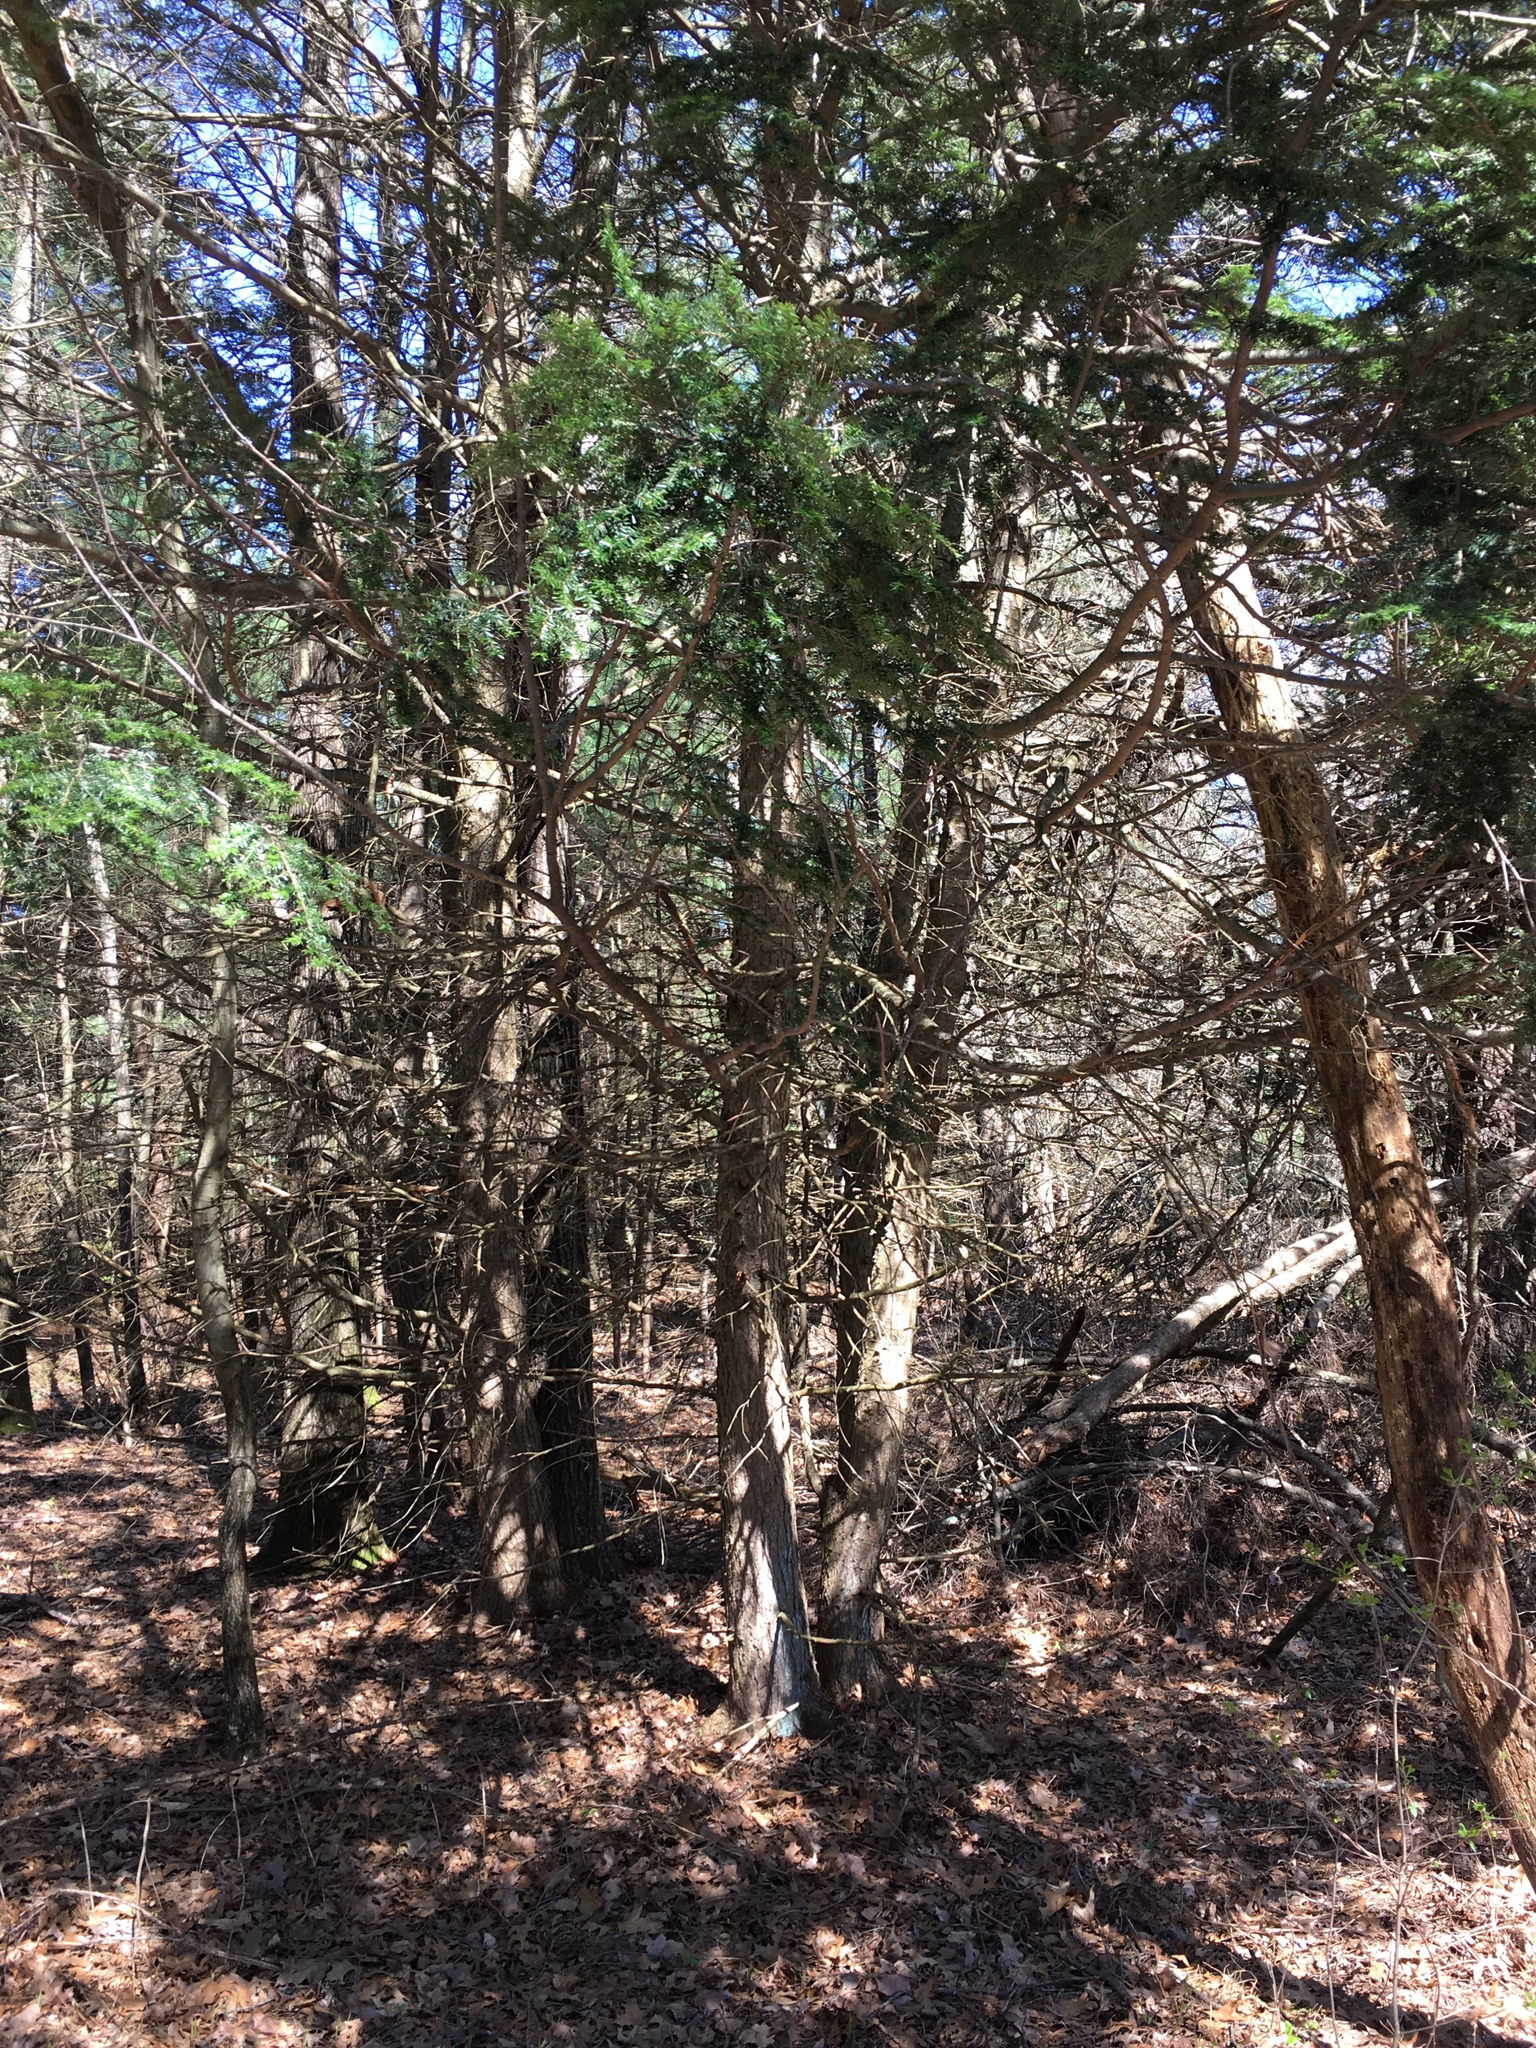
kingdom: Plantae
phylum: Tracheophyta
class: Pinopsida
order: Pinales
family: Pinaceae
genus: Tsuga
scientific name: Tsuga canadensis
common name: Eastern hemlock
